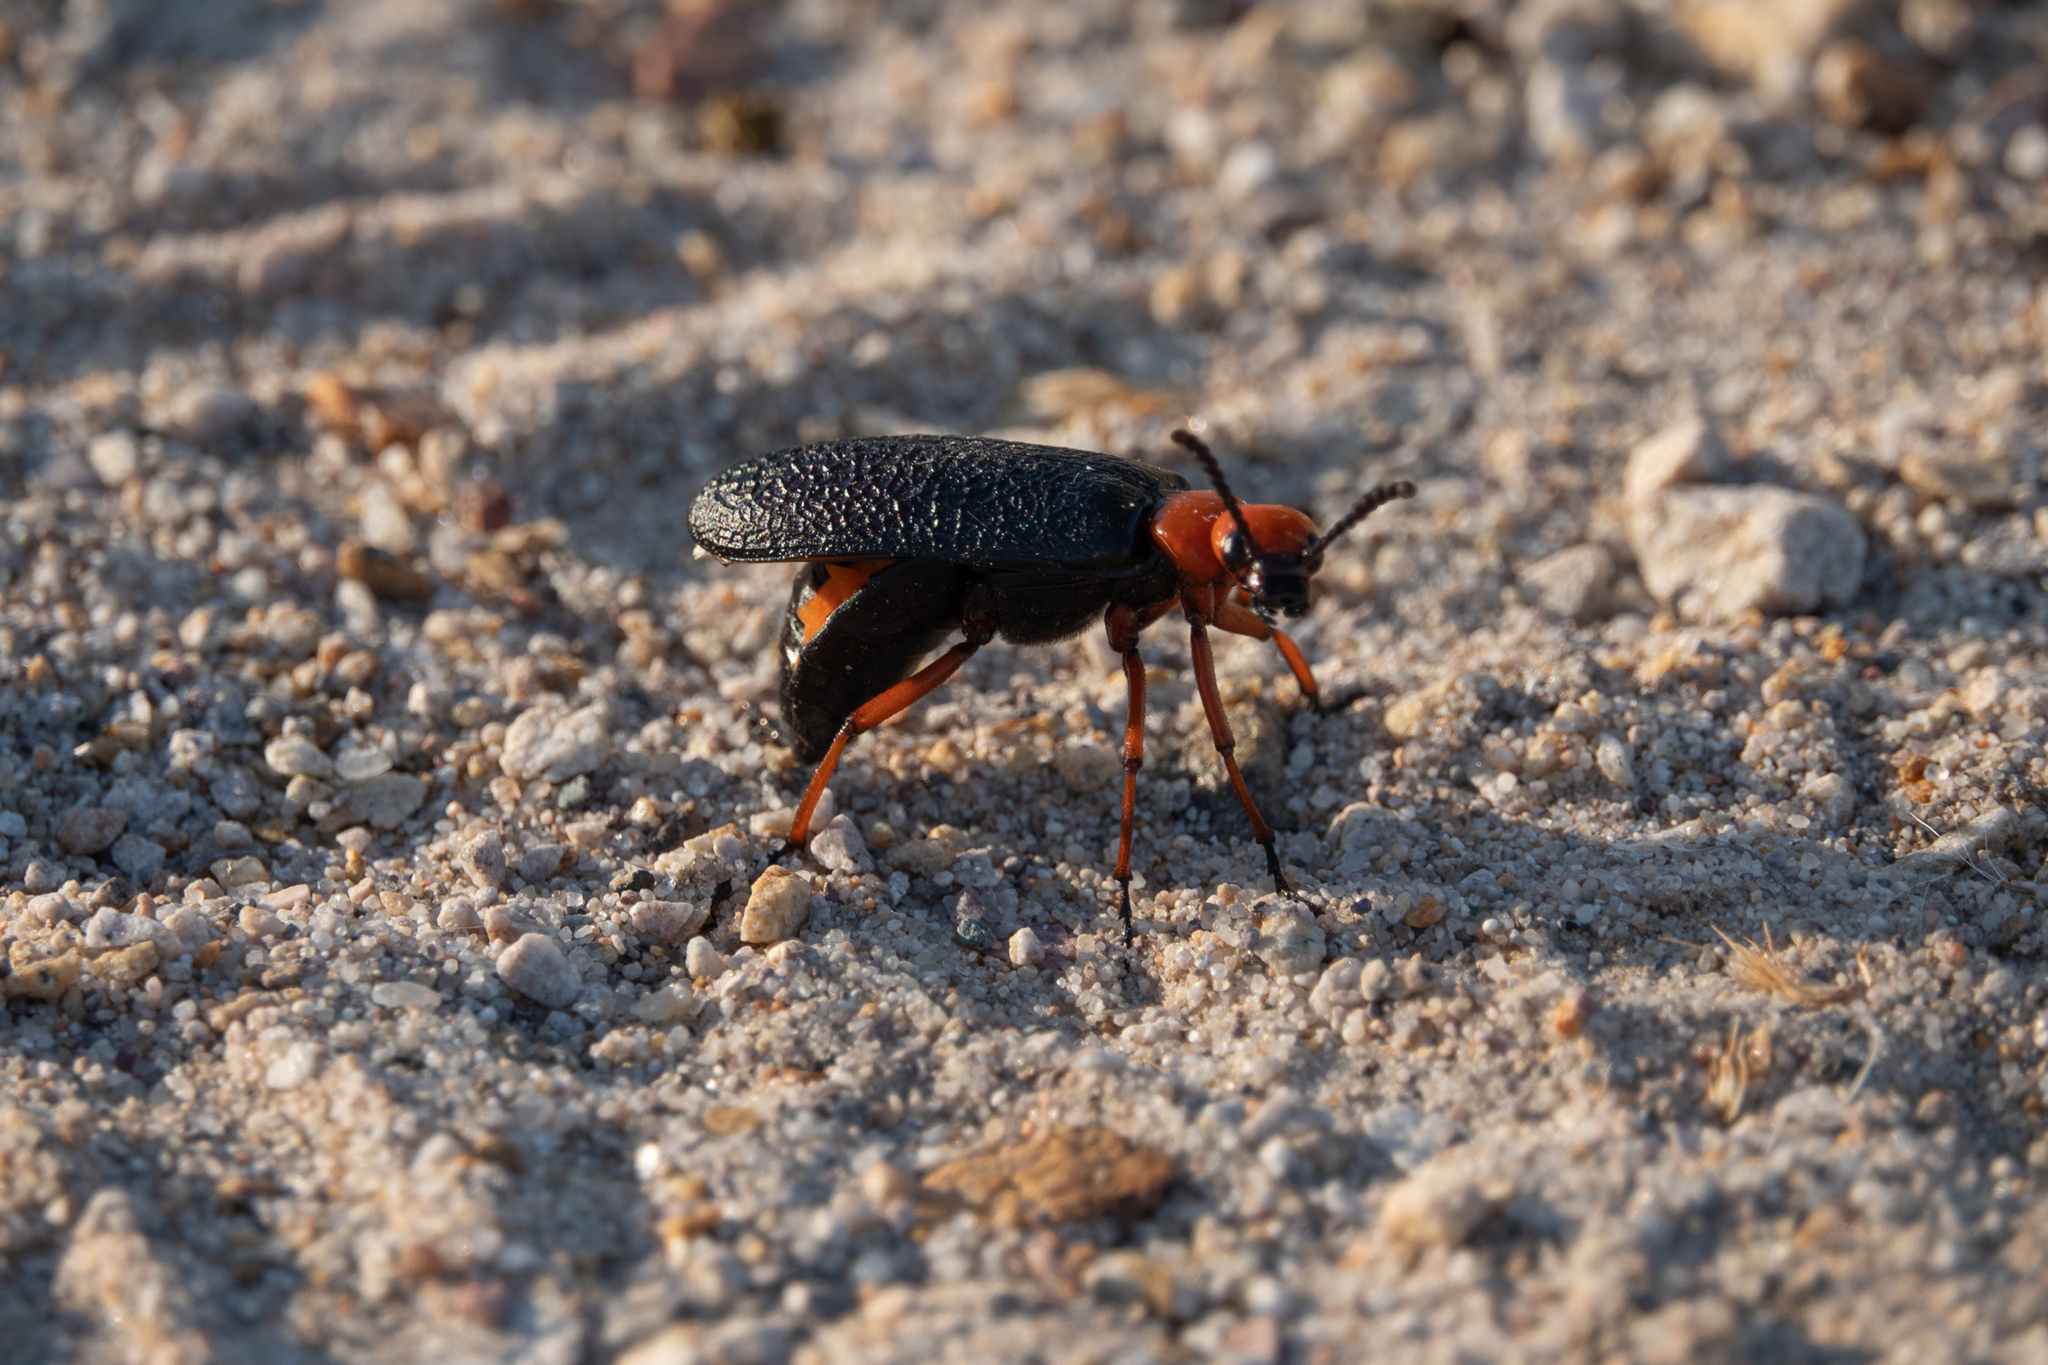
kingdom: Animalia
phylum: Arthropoda
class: Insecta
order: Coleoptera
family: Meloidae
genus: Lytta
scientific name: Lytta magister
